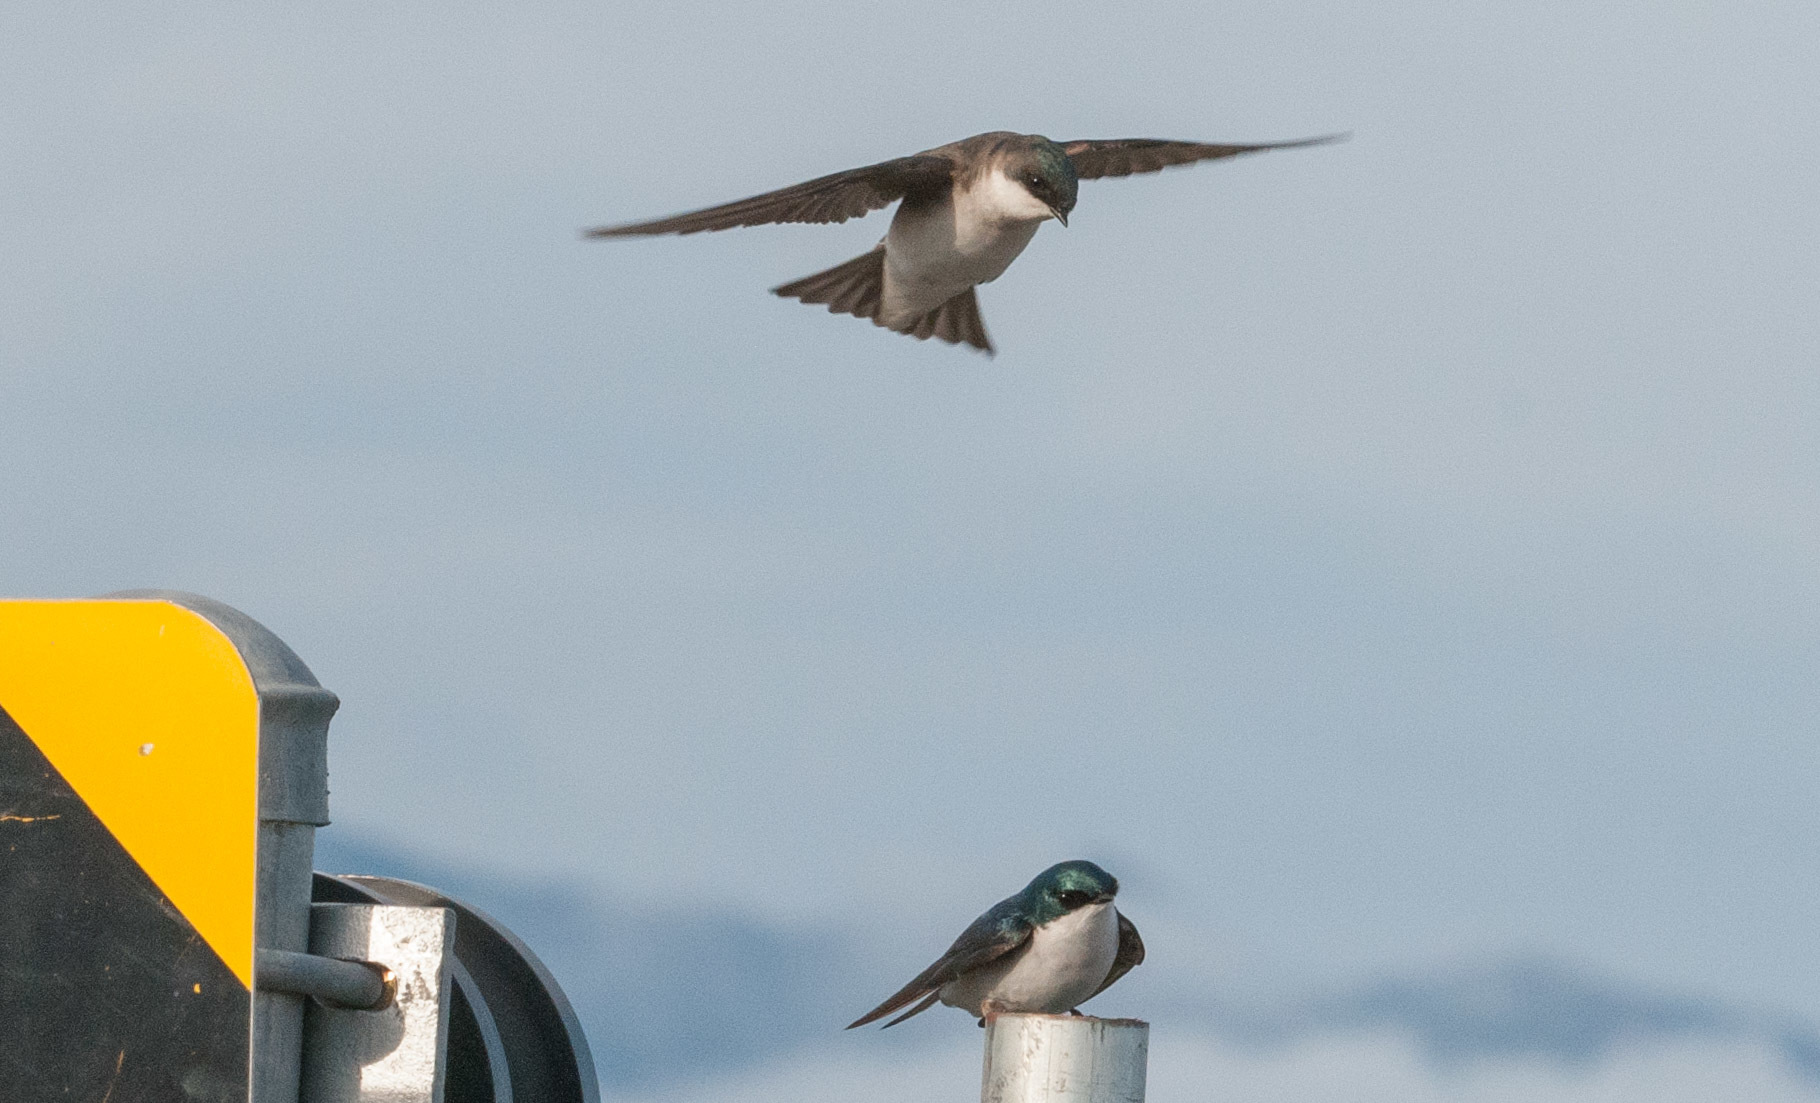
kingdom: Animalia
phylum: Chordata
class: Aves
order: Passeriformes
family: Hirundinidae
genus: Tachycineta
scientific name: Tachycineta bicolor
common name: Tree swallow
